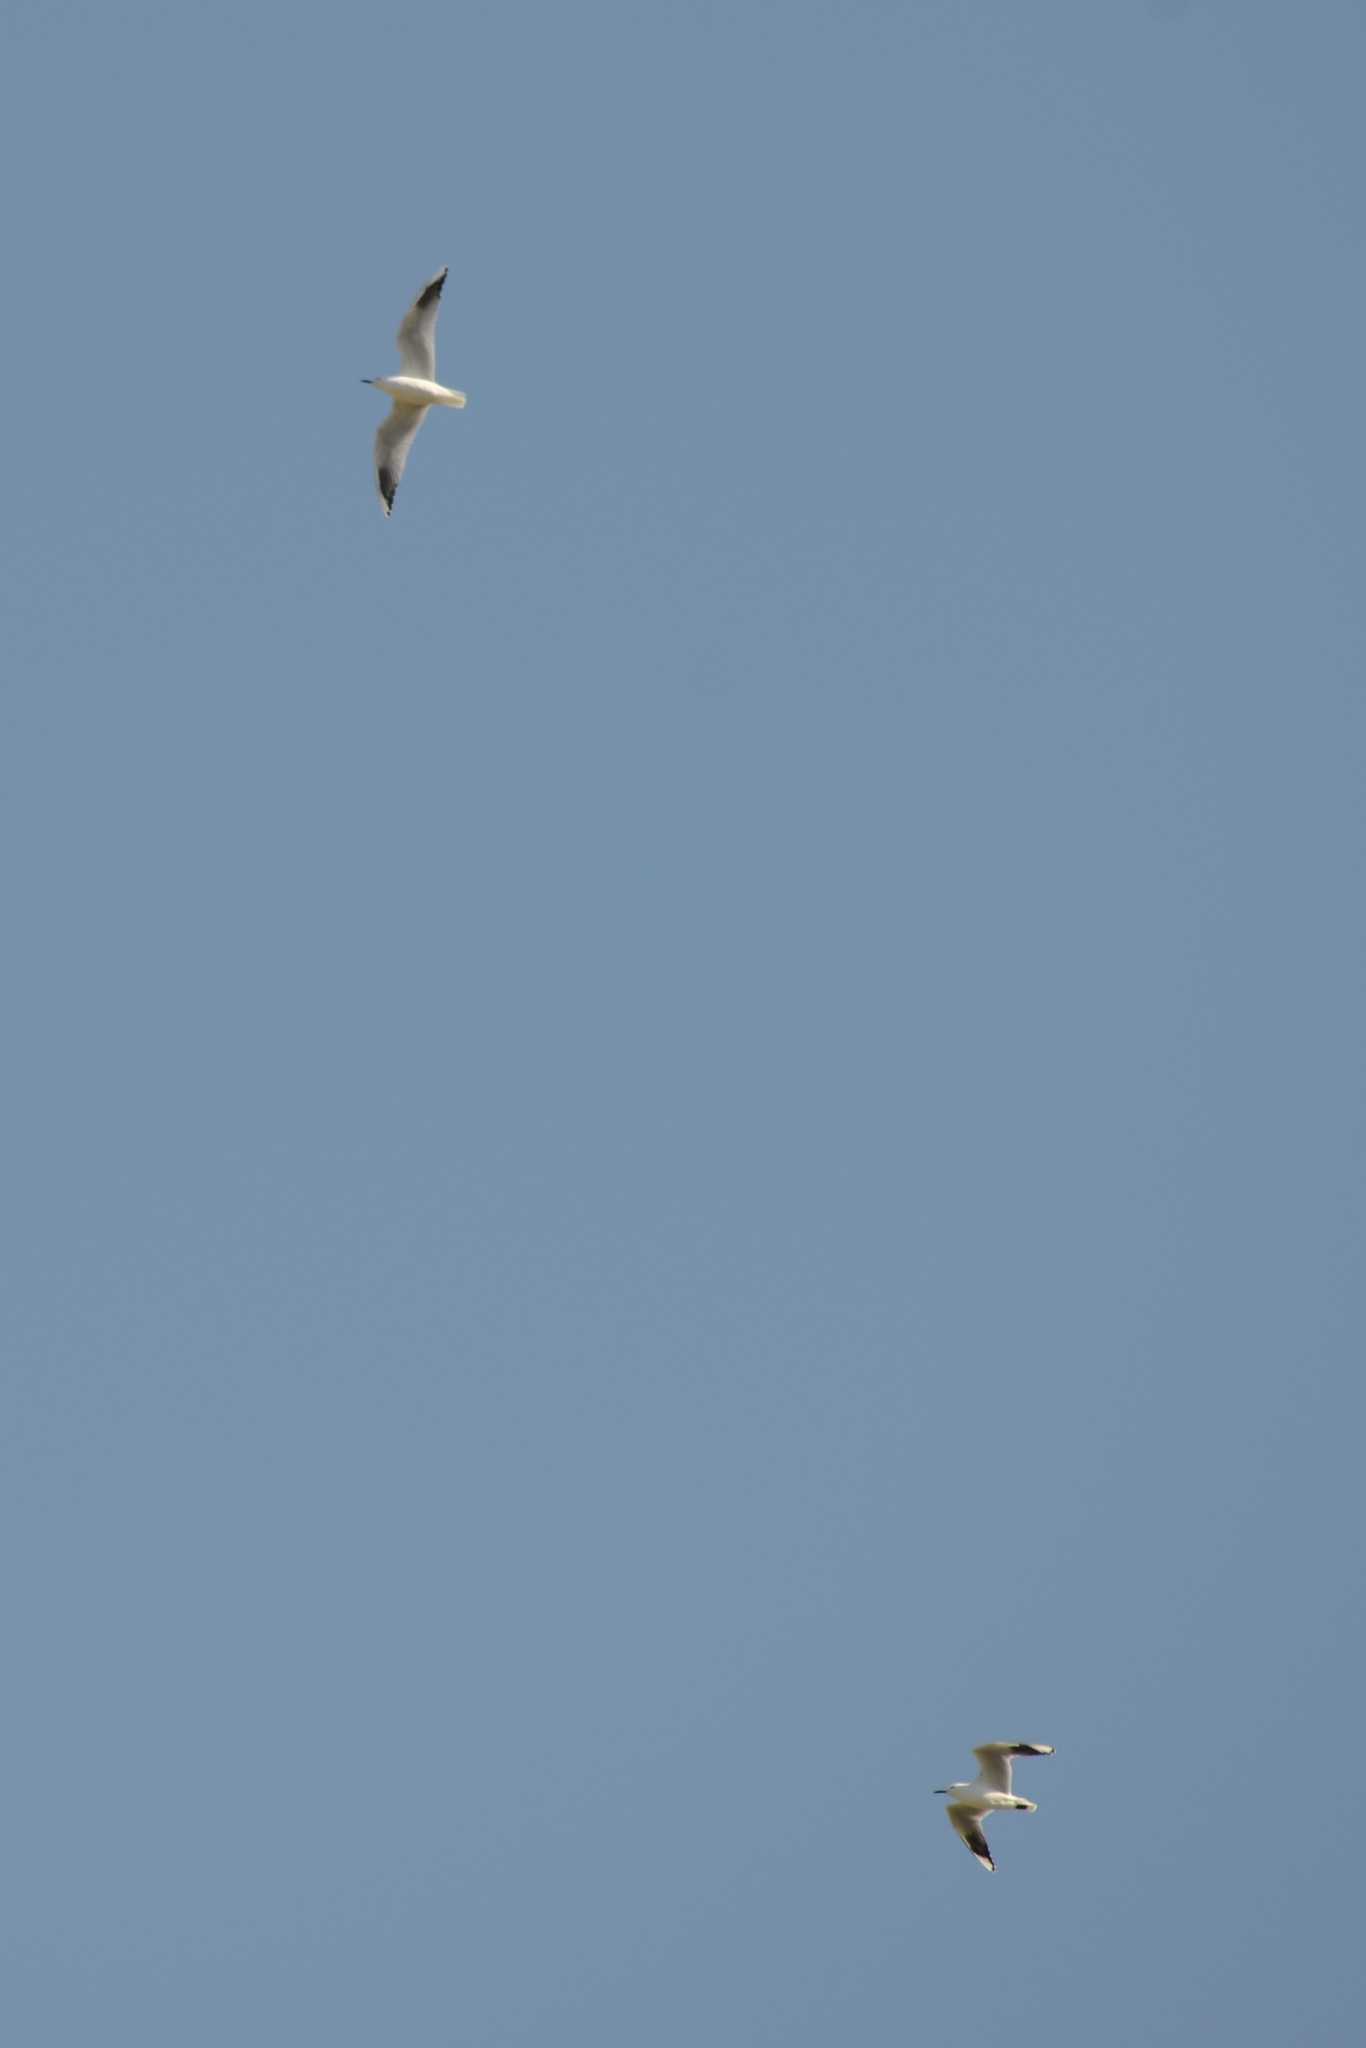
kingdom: Animalia
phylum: Chordata
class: Aves
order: Charadriiformes
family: Laridae
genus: Chroicocephalus
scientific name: Chroicocephalus bulleri
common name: Black-billed gull
